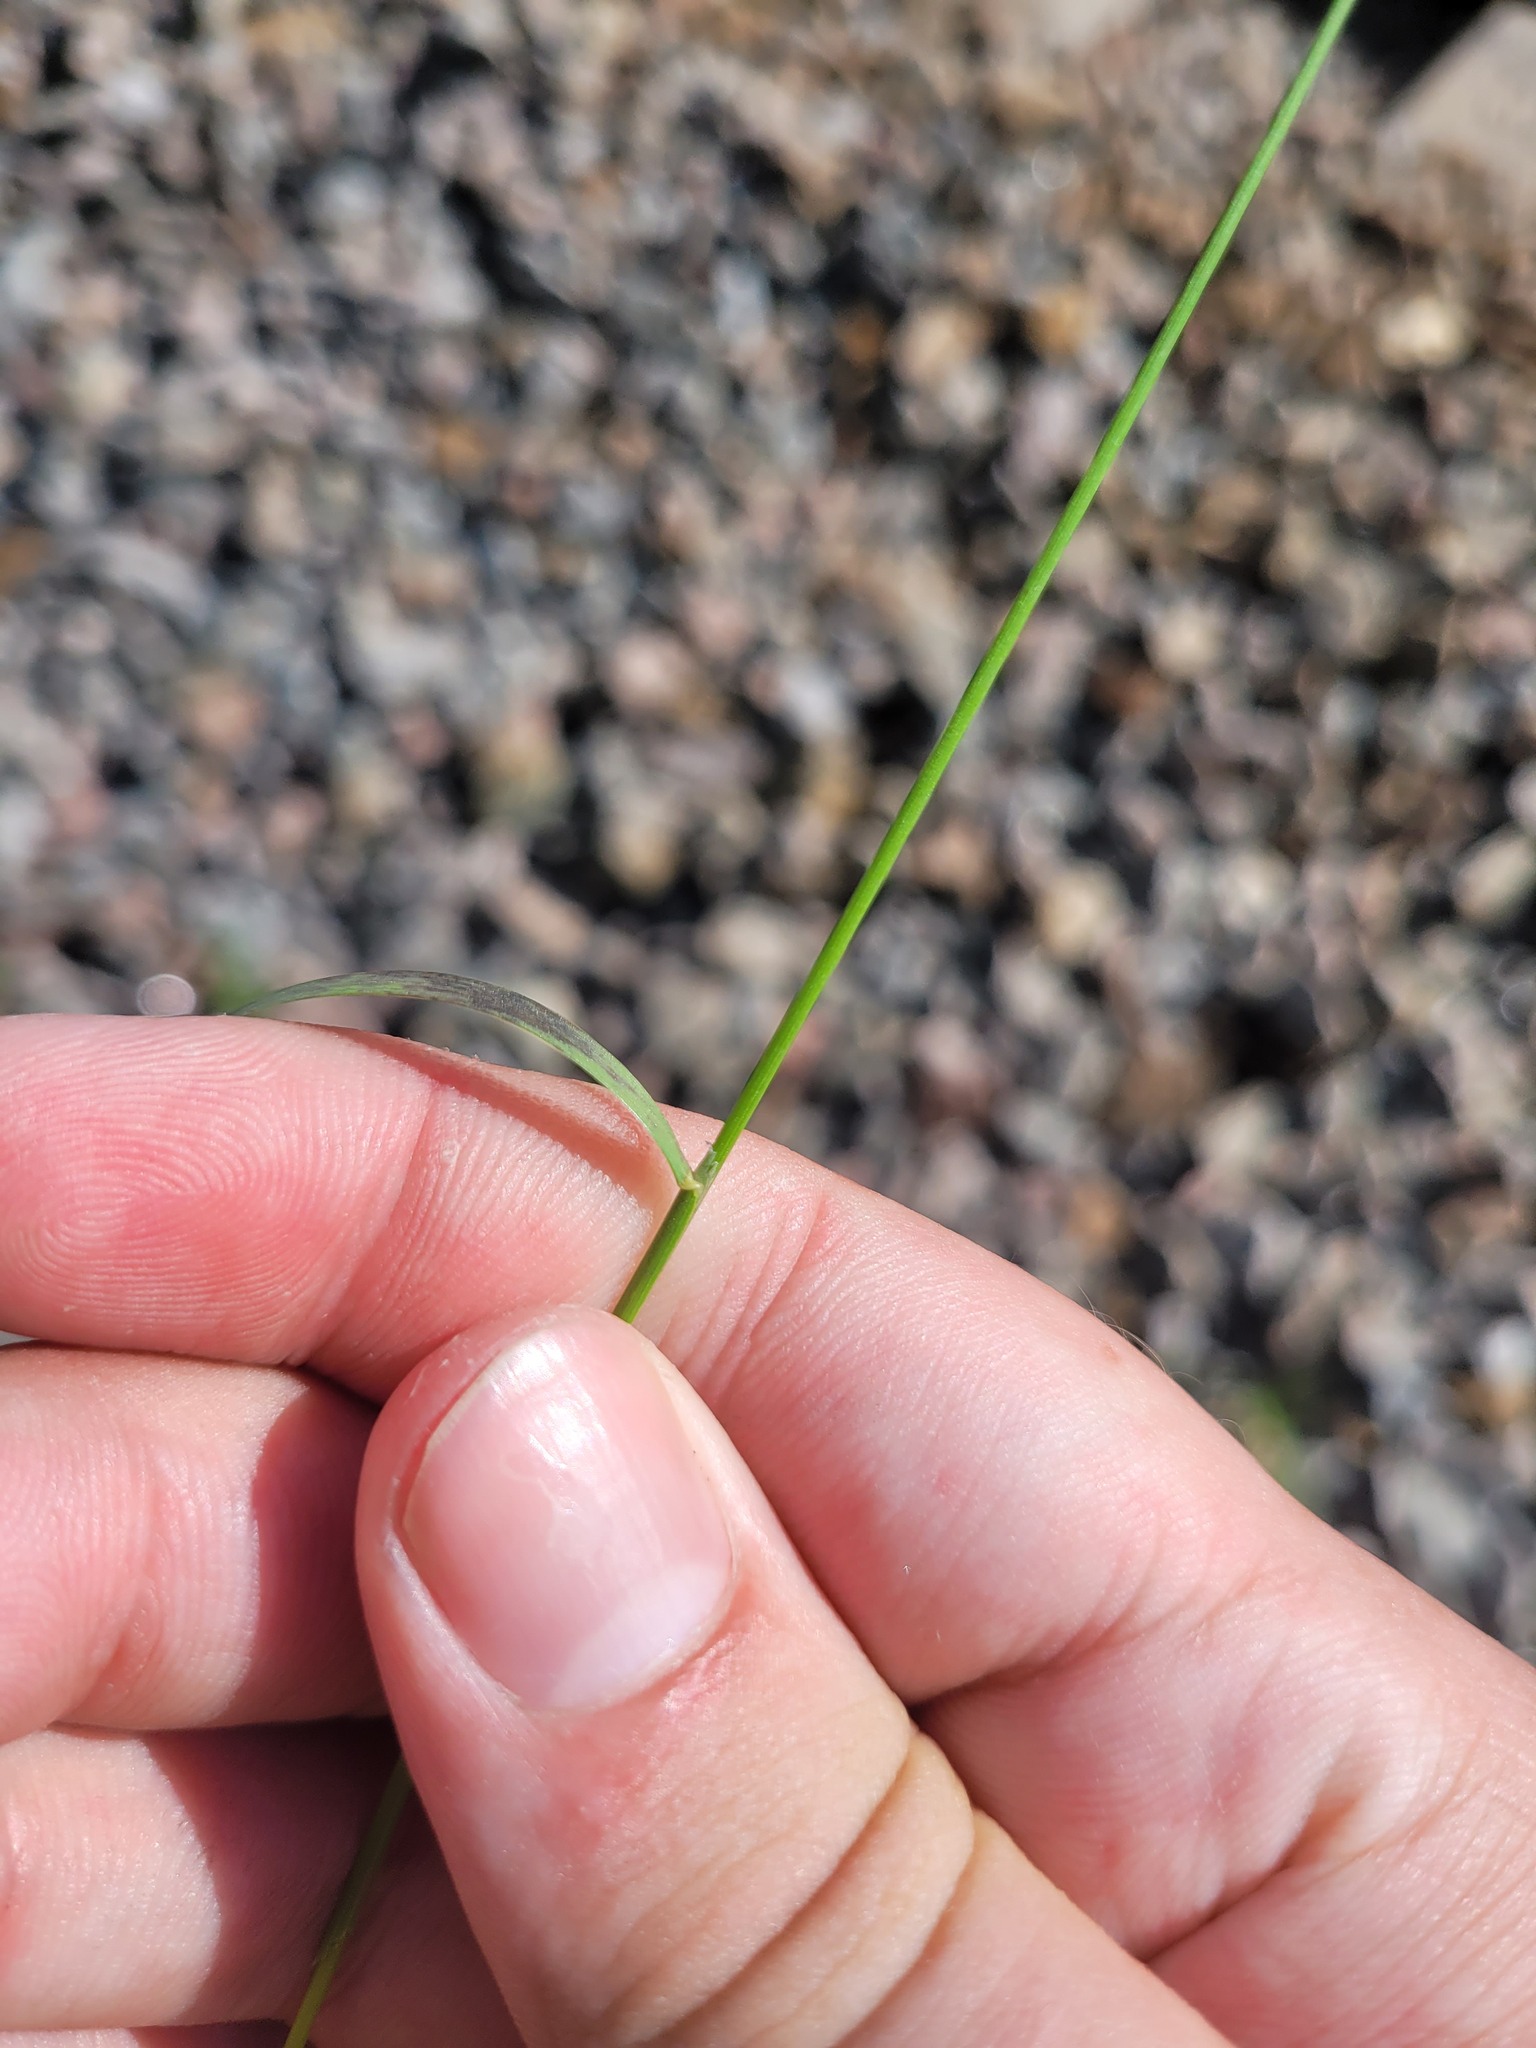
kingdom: Plantae
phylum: Tracheophyta
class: Liliopsida
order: Poales
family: Poaceae
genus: Poa
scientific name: Poa palustris
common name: Swamp meadow-grass
